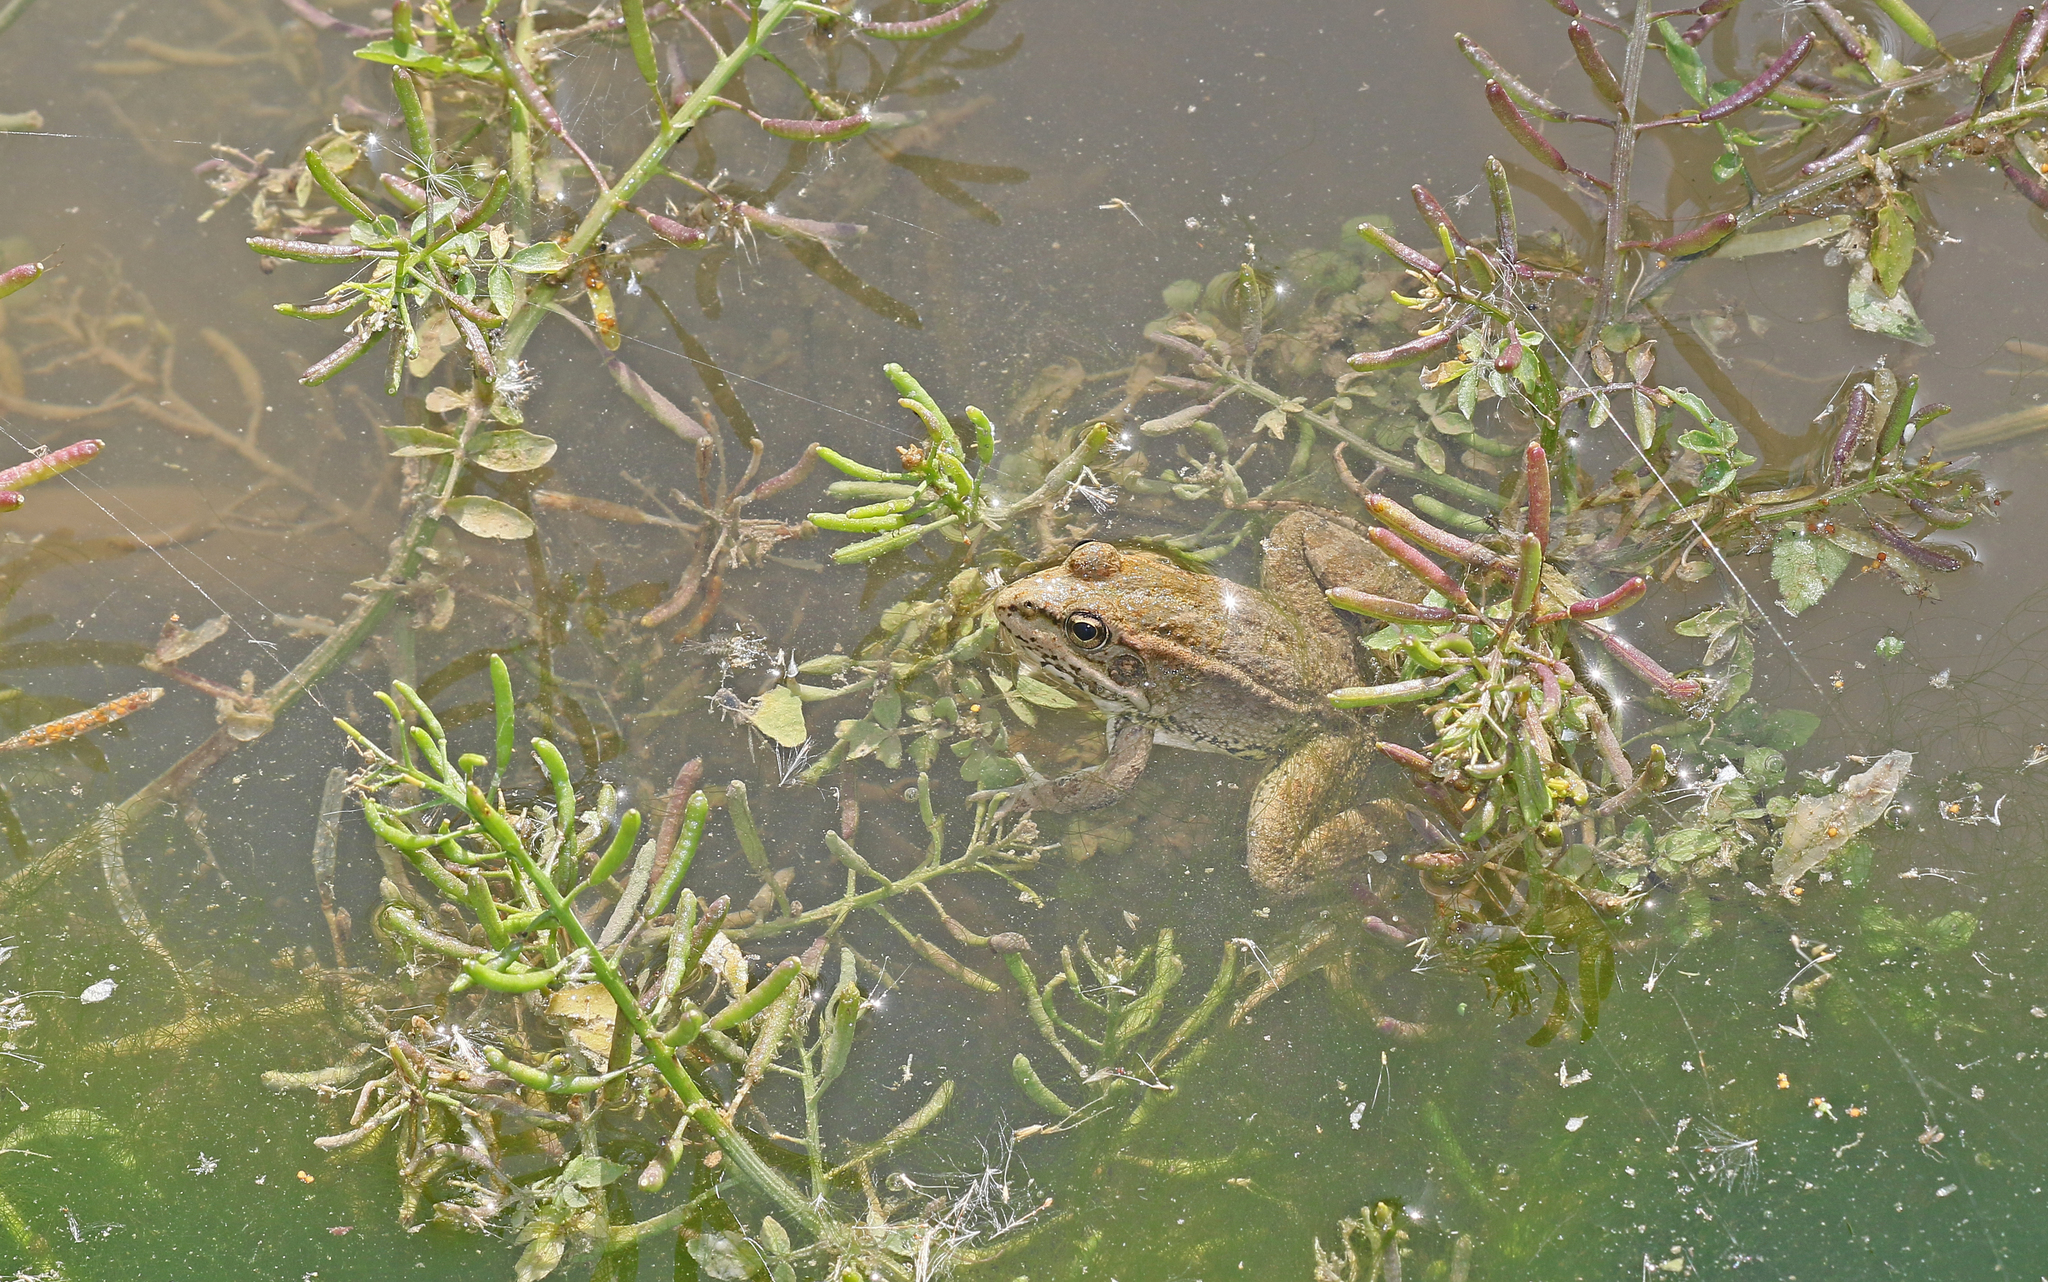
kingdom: Animalia
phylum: Chordata
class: Amphibia
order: Anura
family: Ranidae
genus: Pelophylax
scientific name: Pelophylax perezi
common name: Perez's frog
